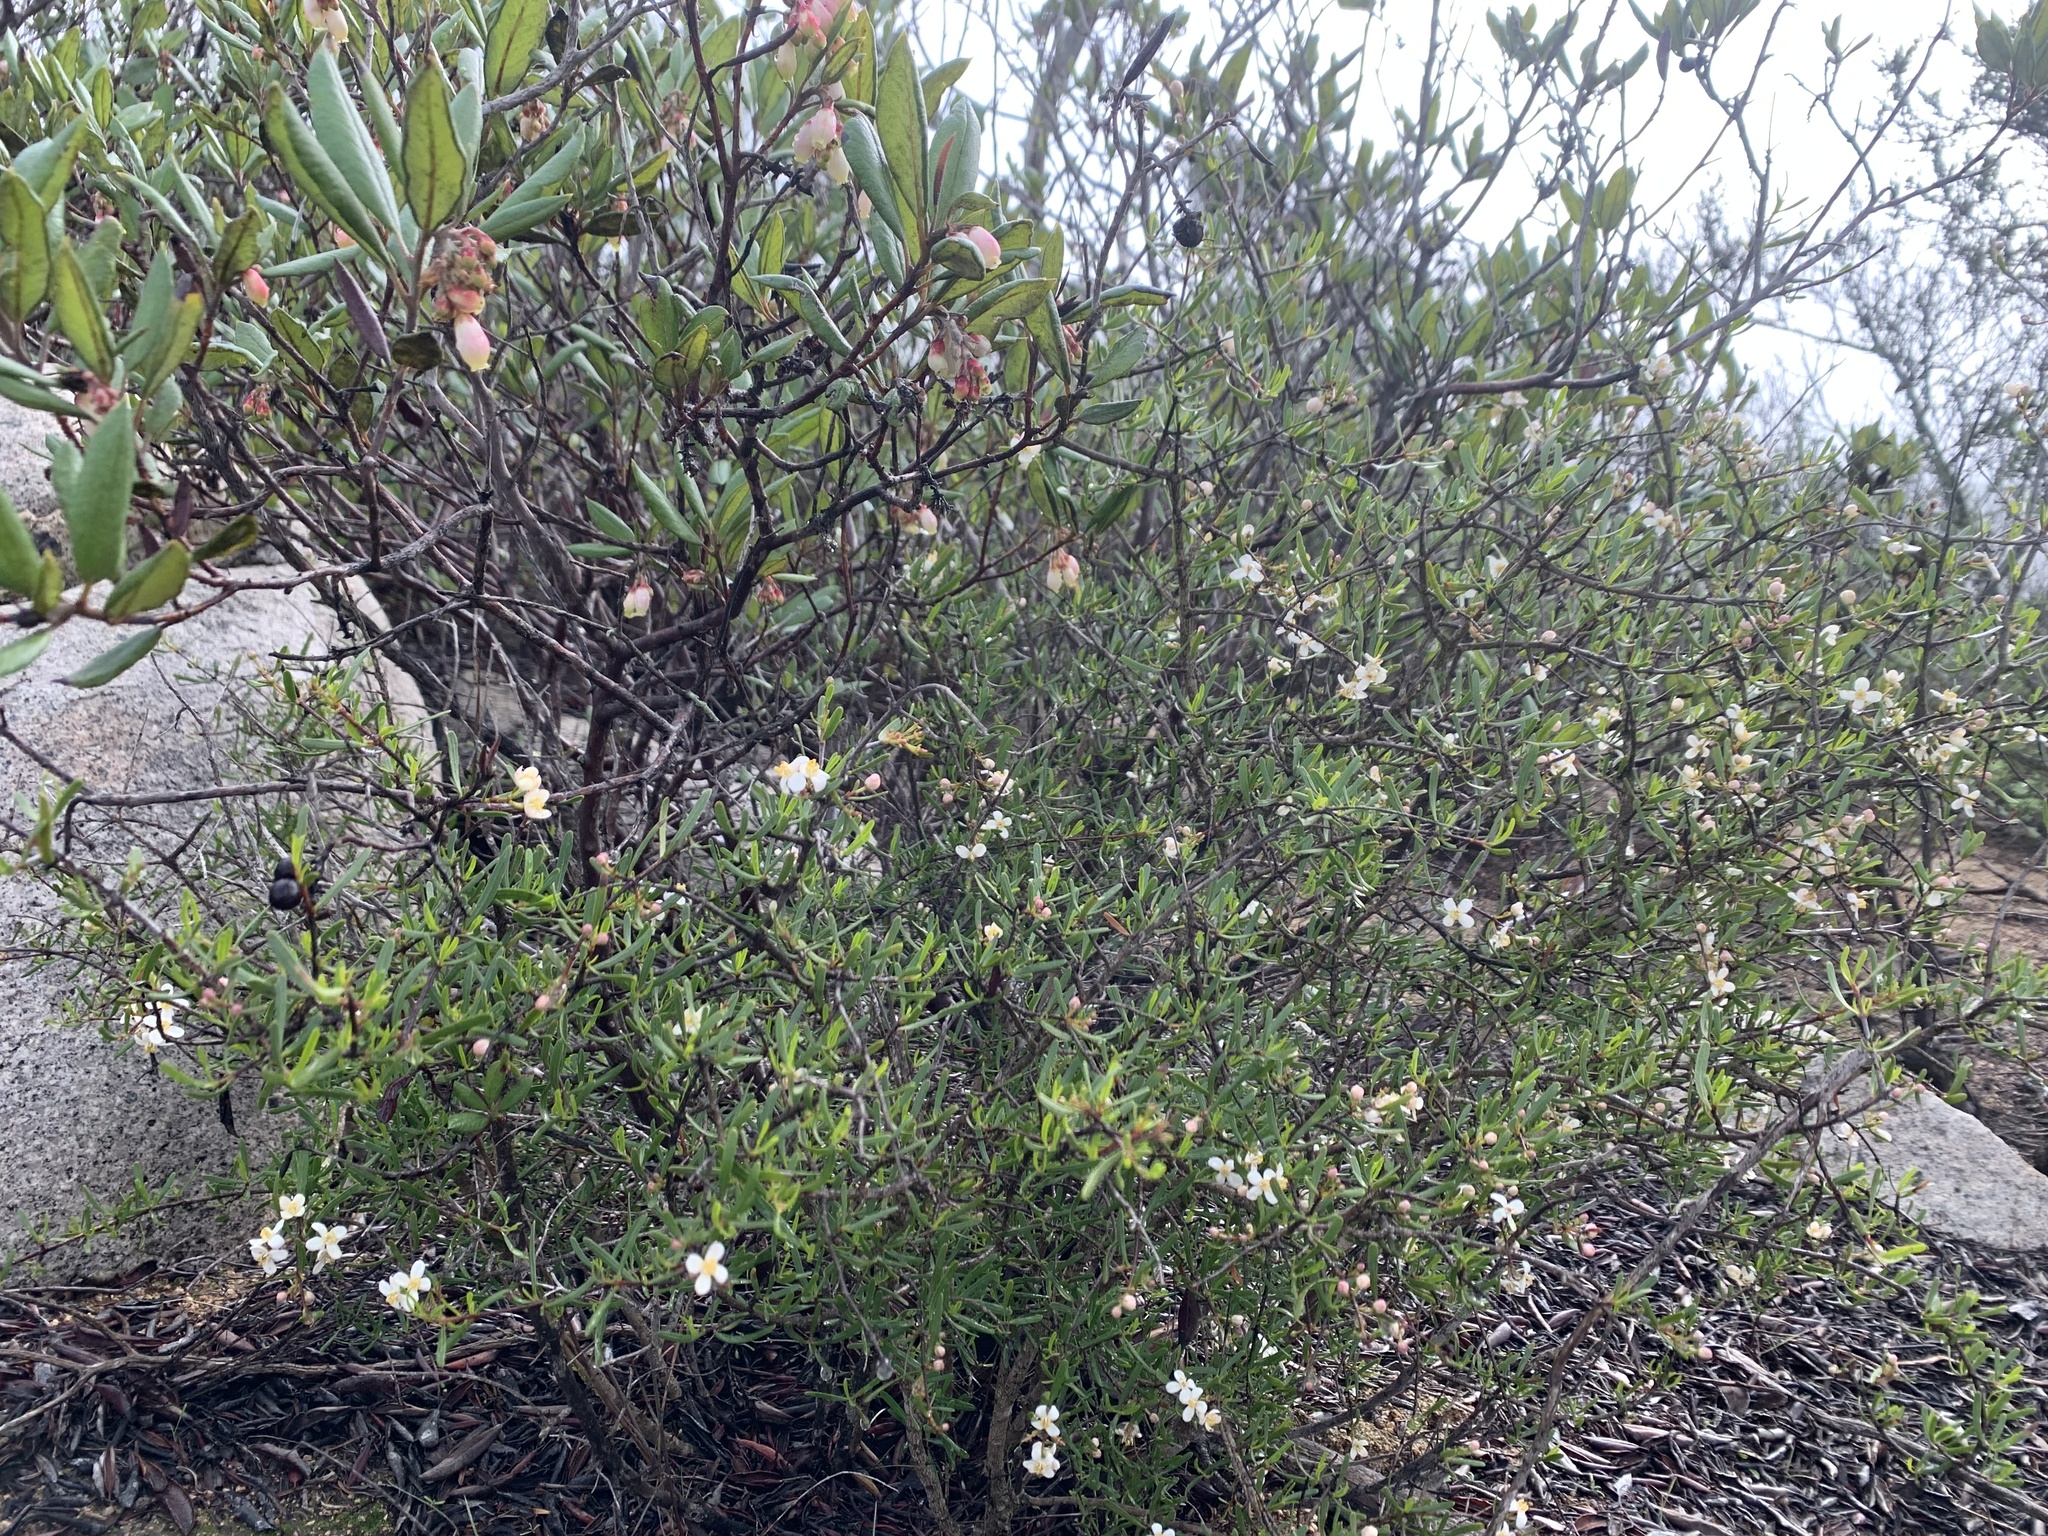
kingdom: Plantae
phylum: Tracheophyta
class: Magnoliopsida
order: Ericales
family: Ericaceae
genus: Arctostaphylos
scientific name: Arctostaphylos bicolor
